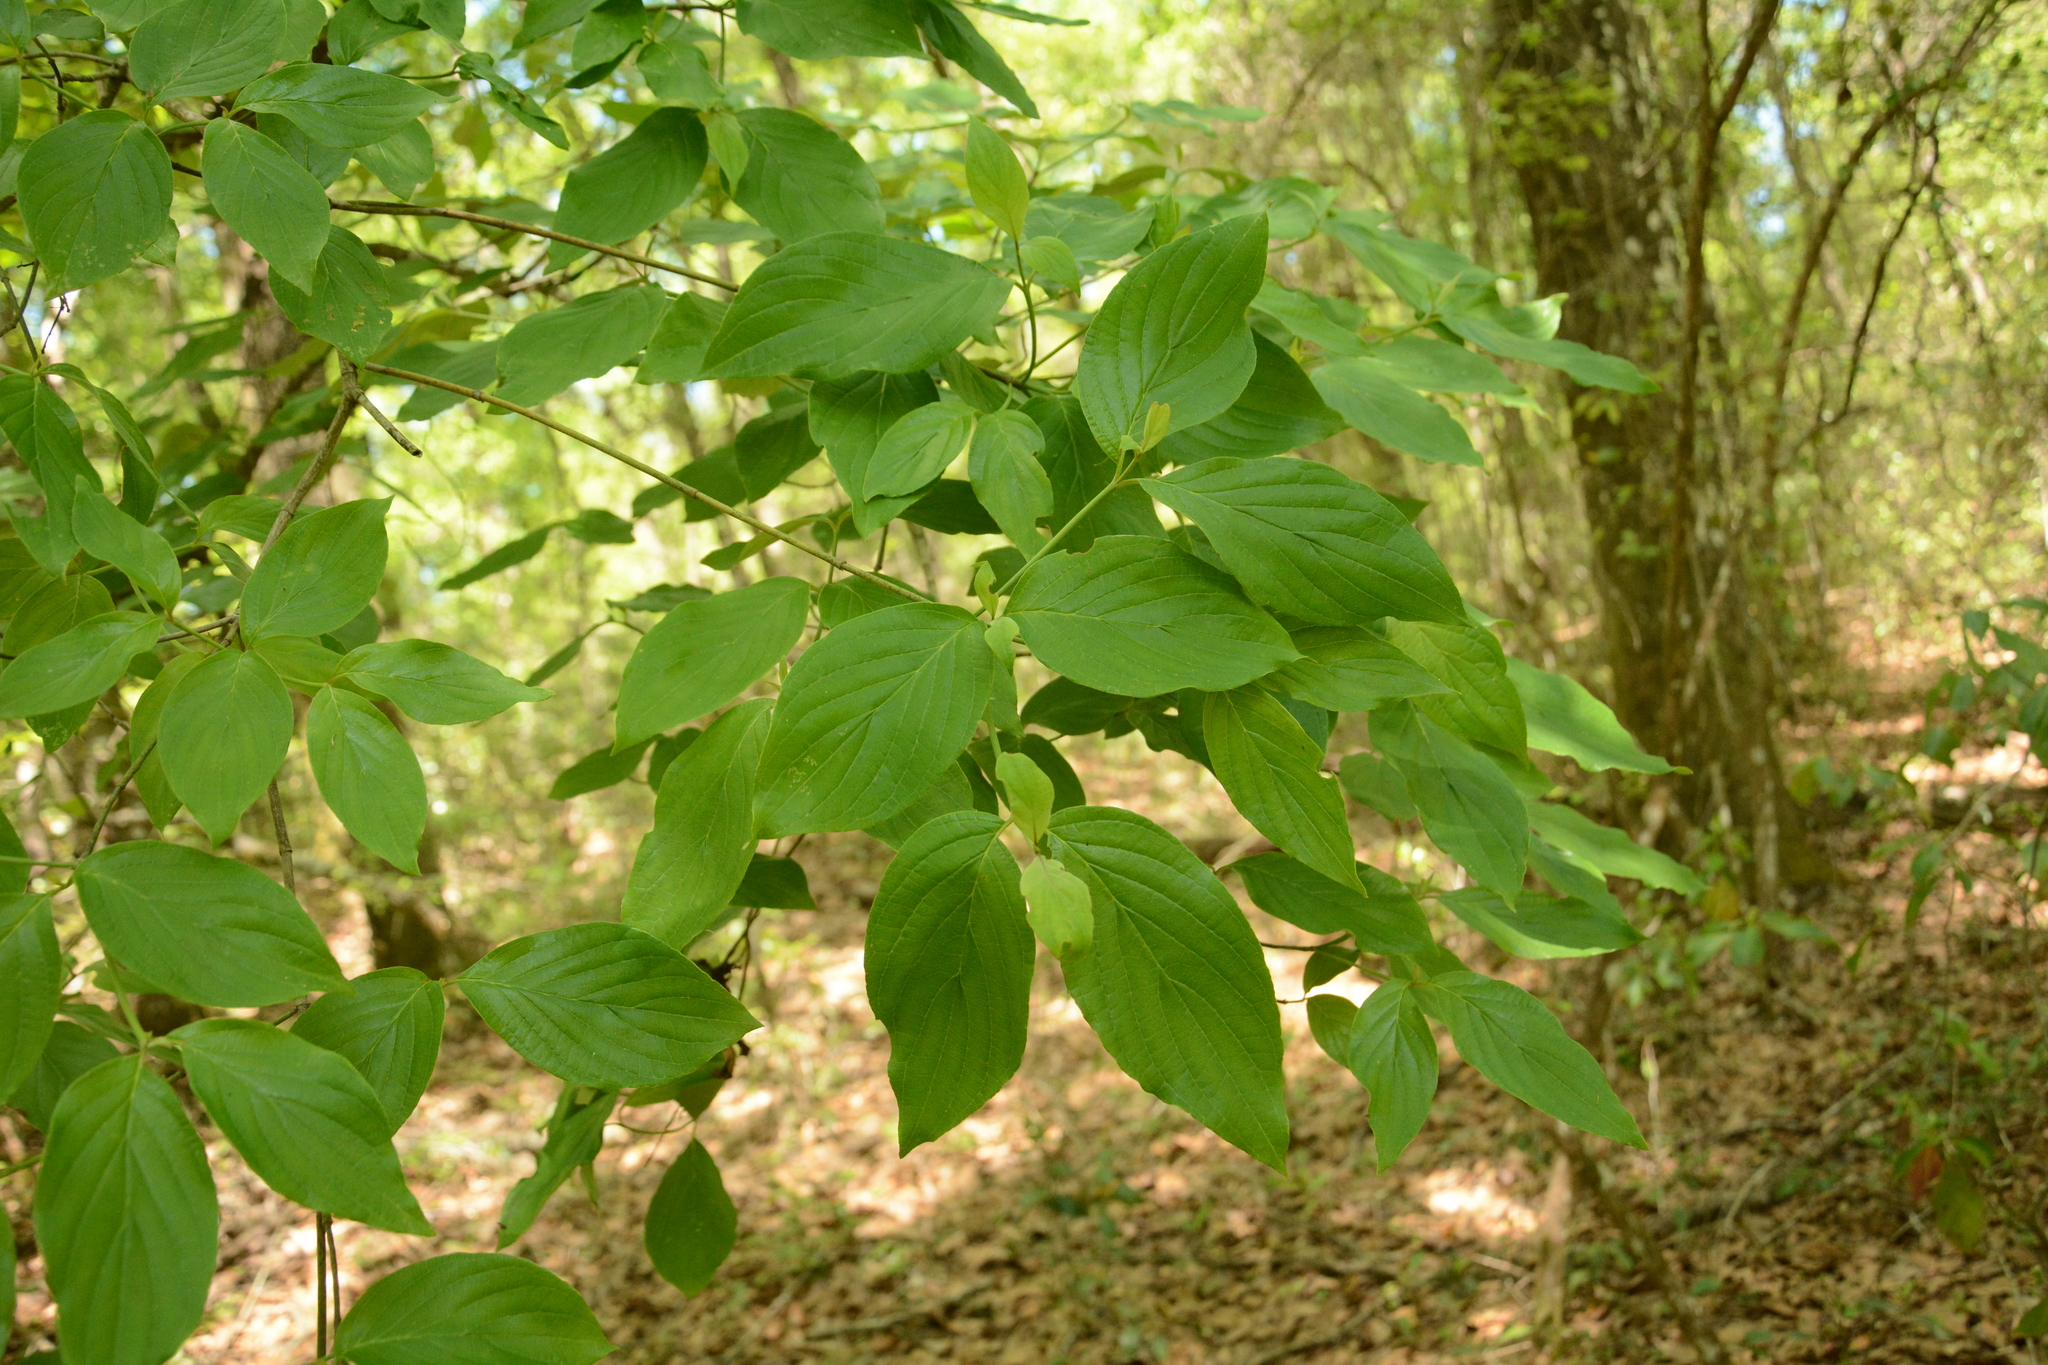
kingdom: Plantae
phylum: Tracheophyta
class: Magnoliopsida
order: Cornales
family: Cornaceae
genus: Cornus
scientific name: Cornus florida
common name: Flowering dogwood
